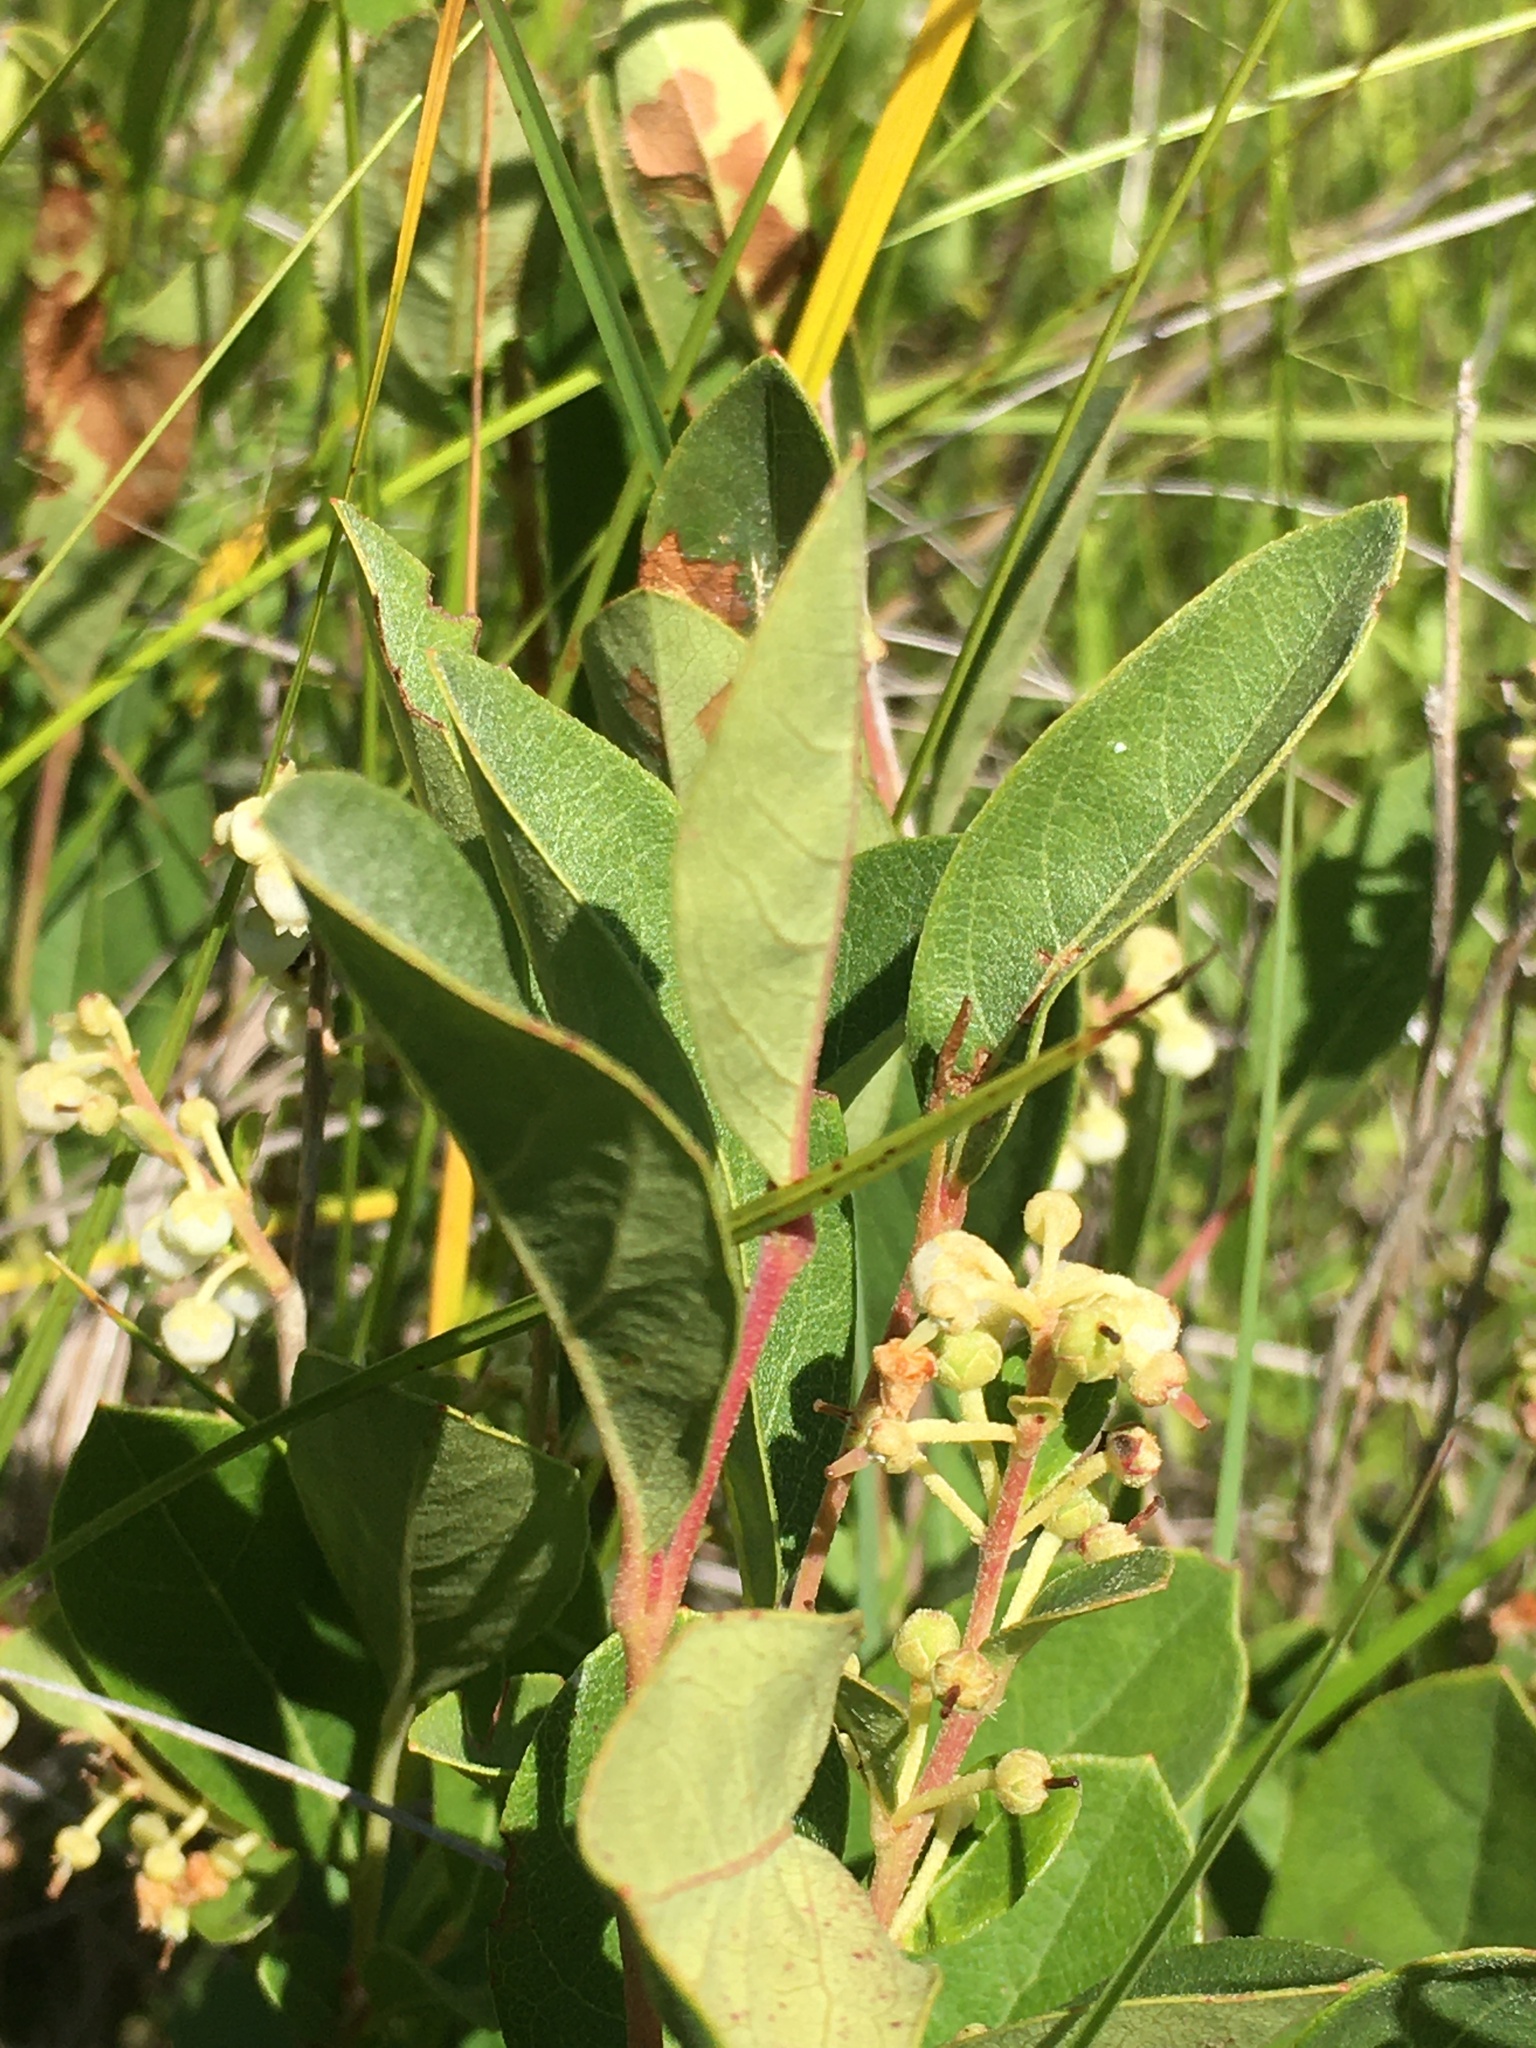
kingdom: Plantae
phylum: Tracheophyta
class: Magnoliopsida
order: Ericales
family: Ericaceae
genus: Lyonia
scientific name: Lyonia ligustrina
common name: Maleberry
